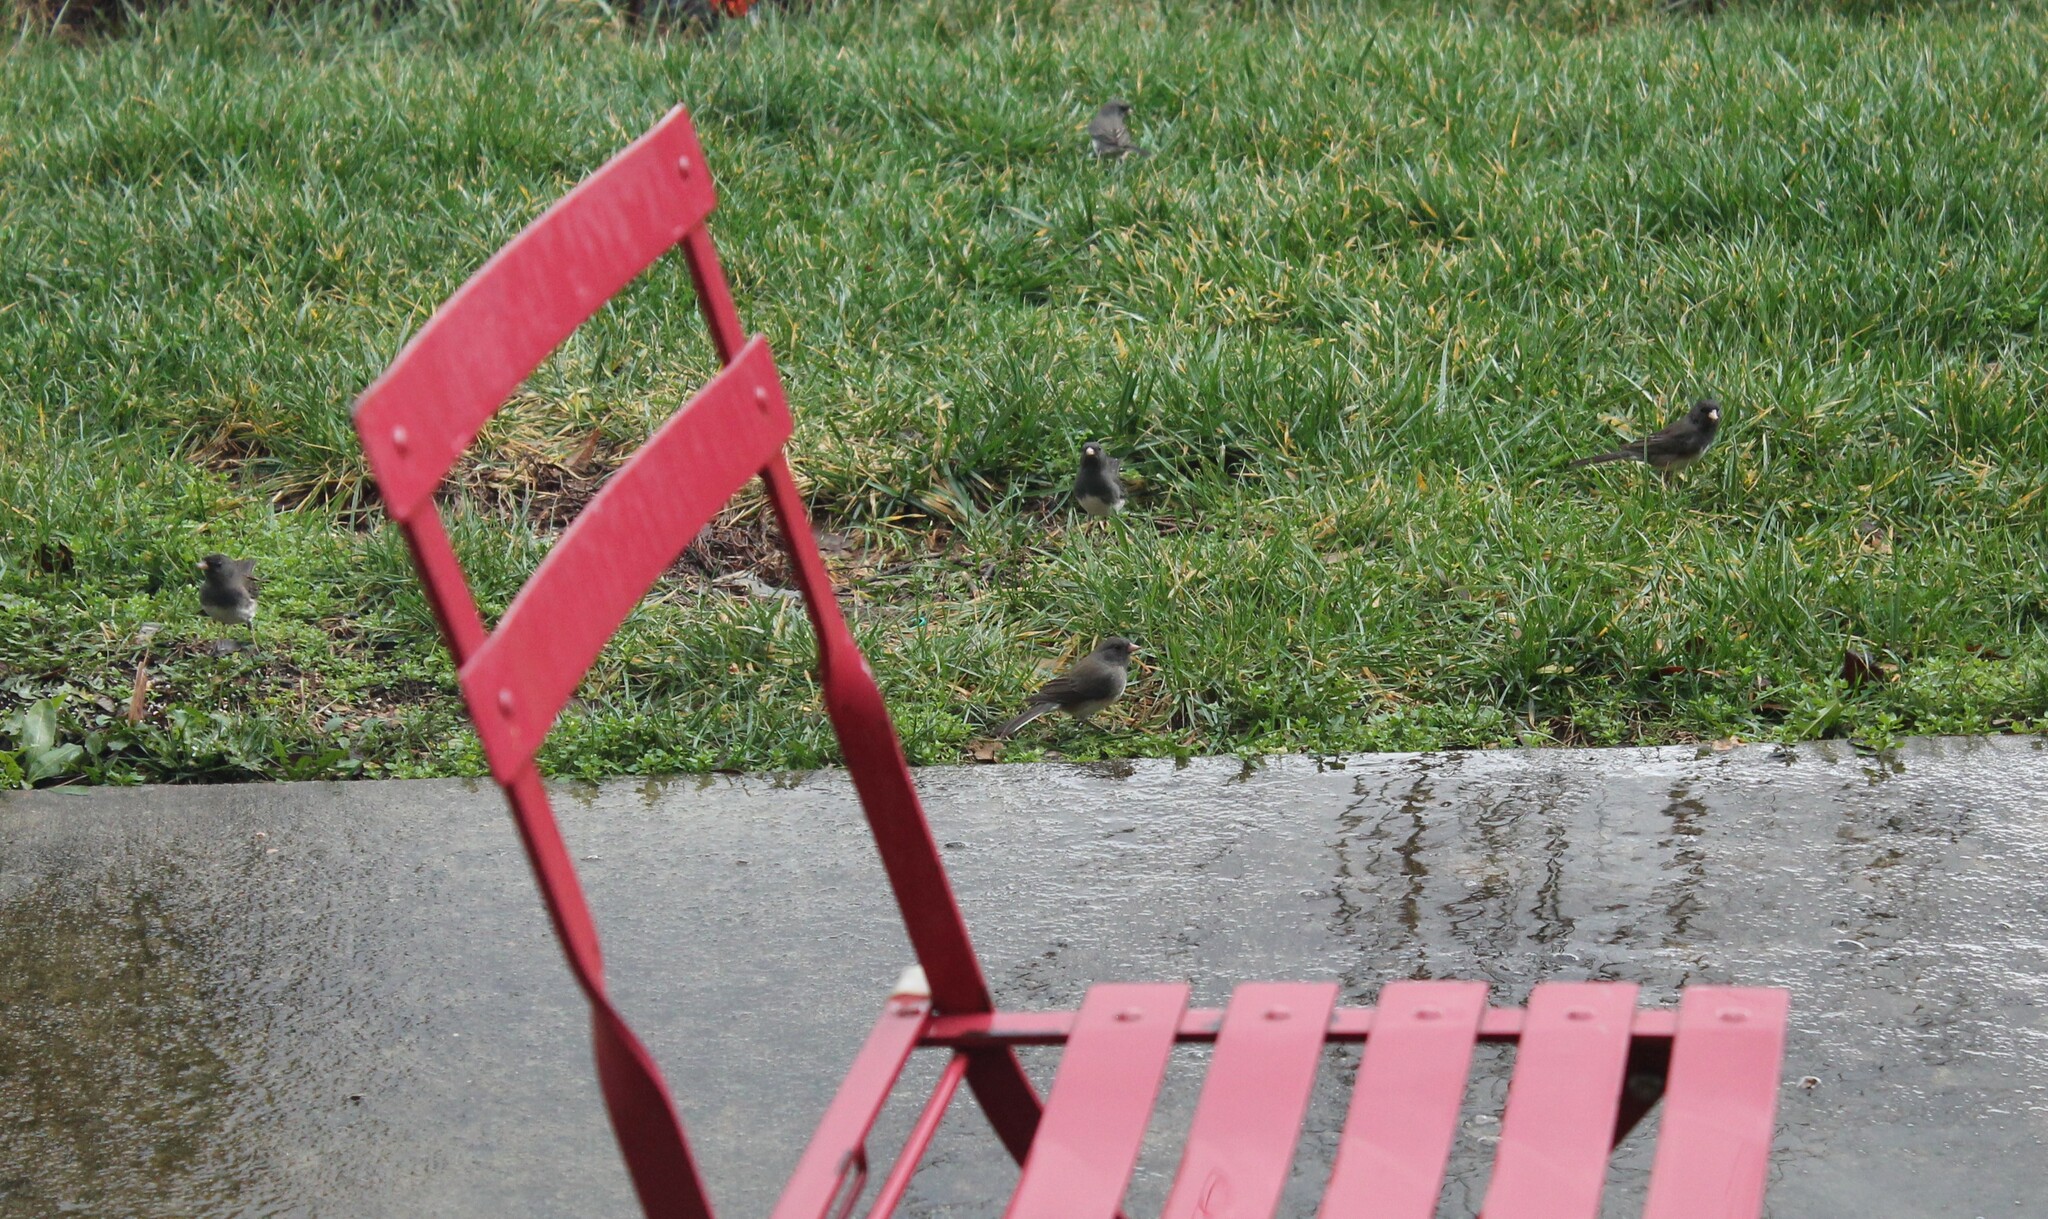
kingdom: Animalia
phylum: Chordata
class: Aves
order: Passeriformes
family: Passerellidae
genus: Junco
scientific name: Junco hyemalis
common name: Dark-eyed junco
